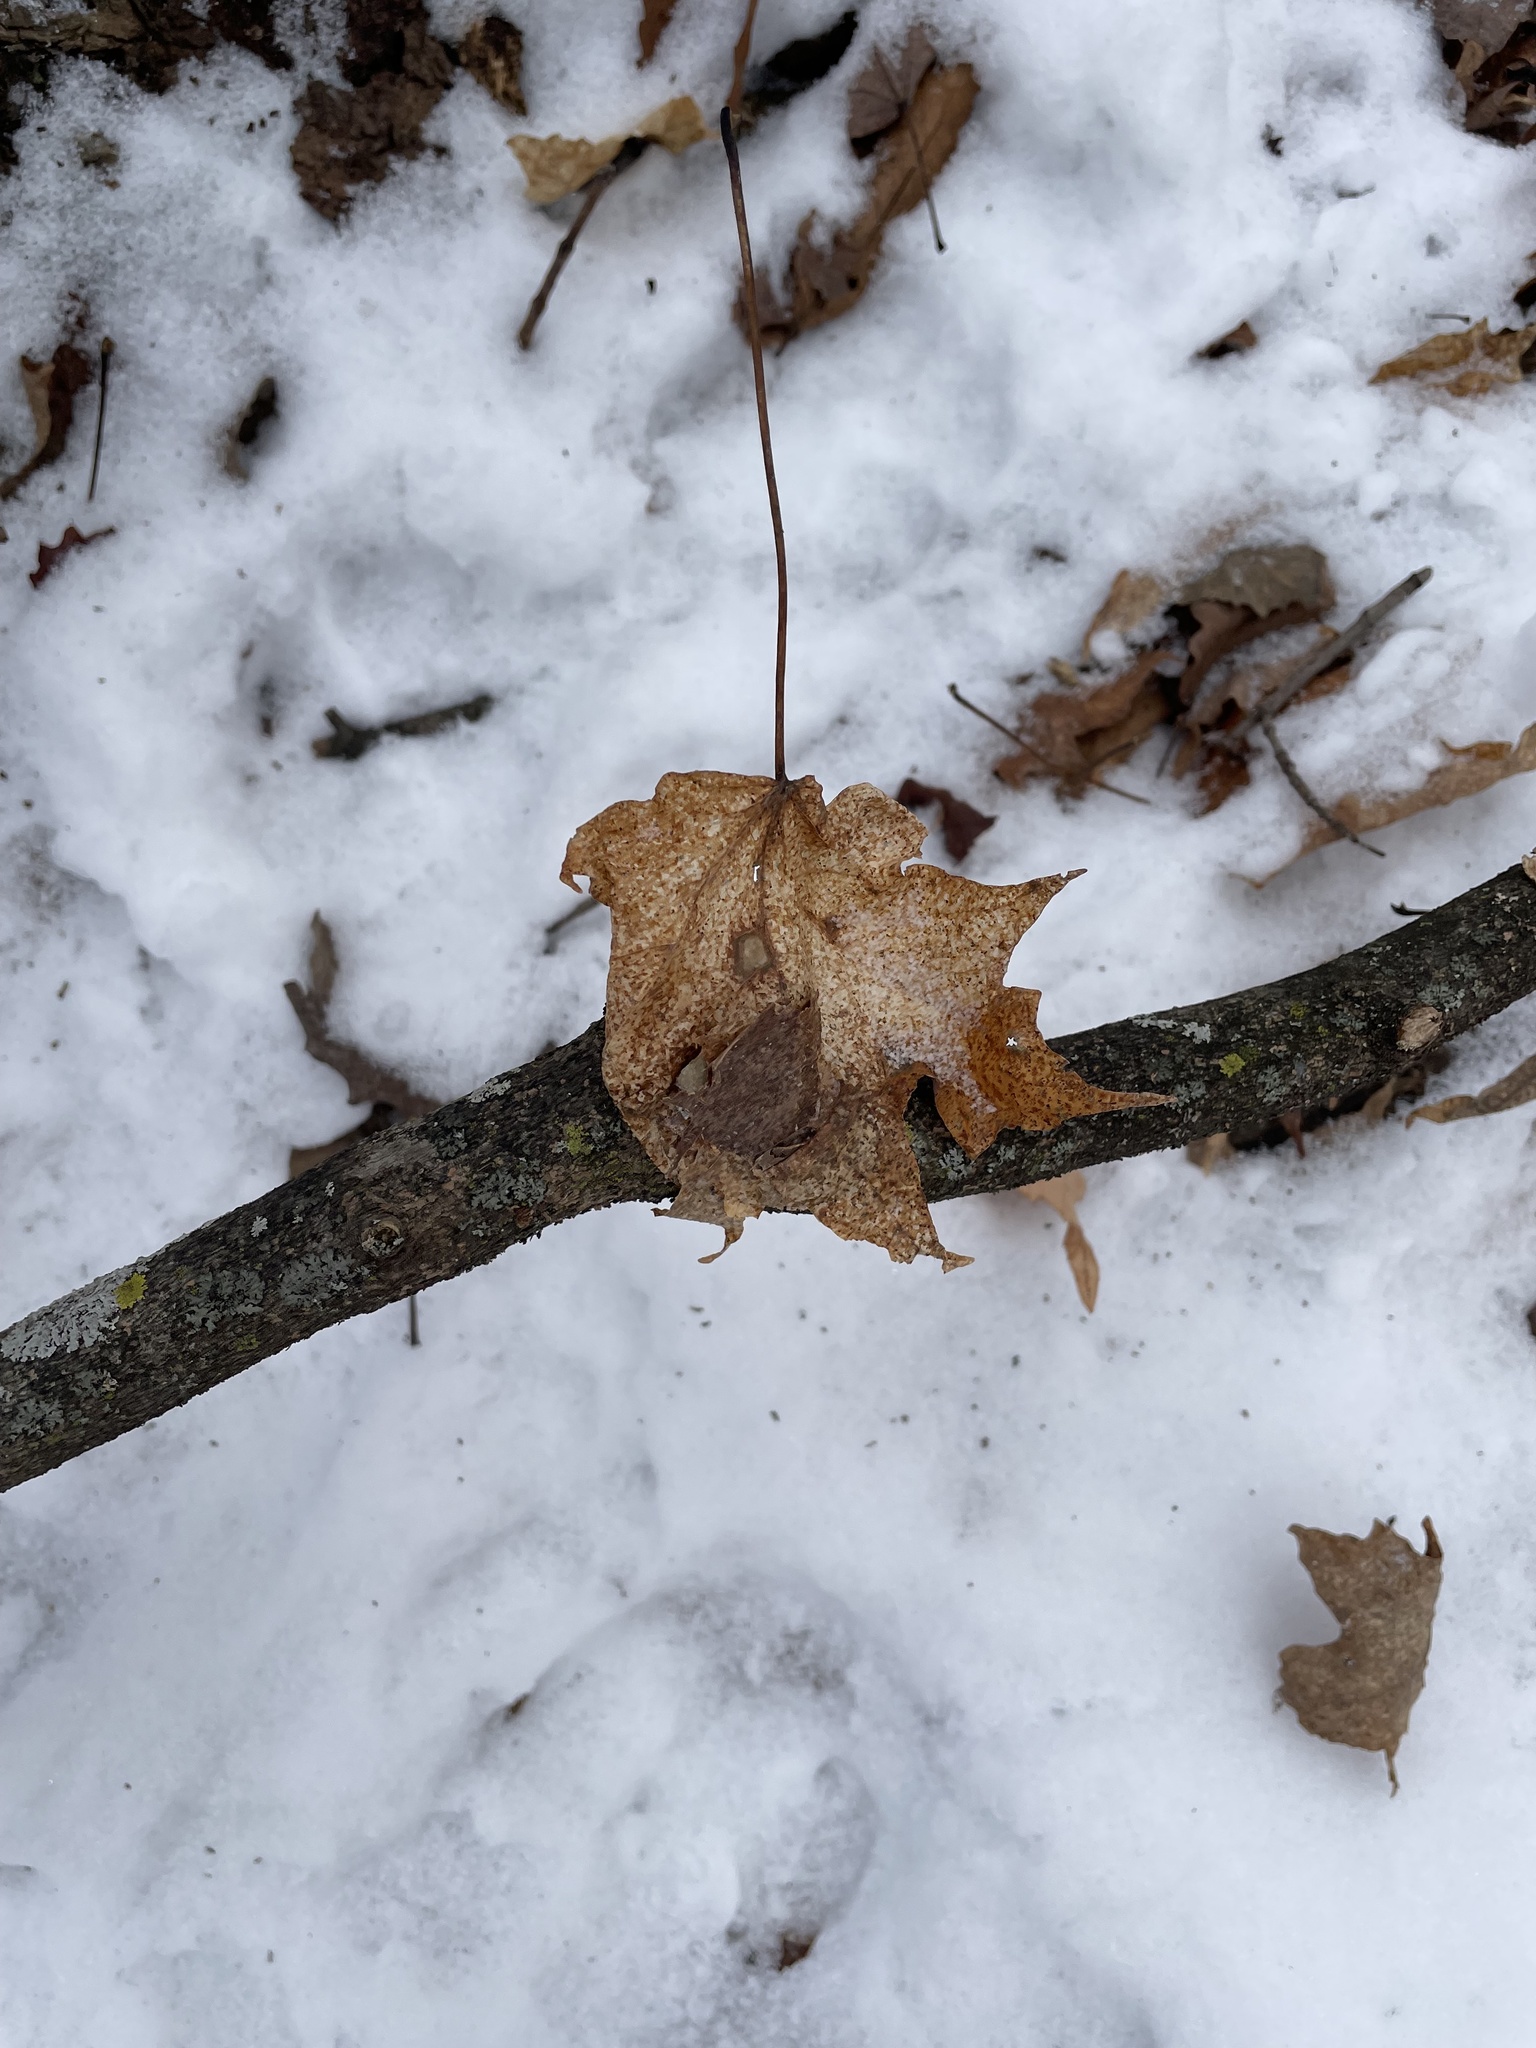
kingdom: Plantae
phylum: Tracheophyta
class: Magnoliopsida
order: Sapindales
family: Sapindaceae
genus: Acer
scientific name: Acer saccharum
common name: Sugar maple
